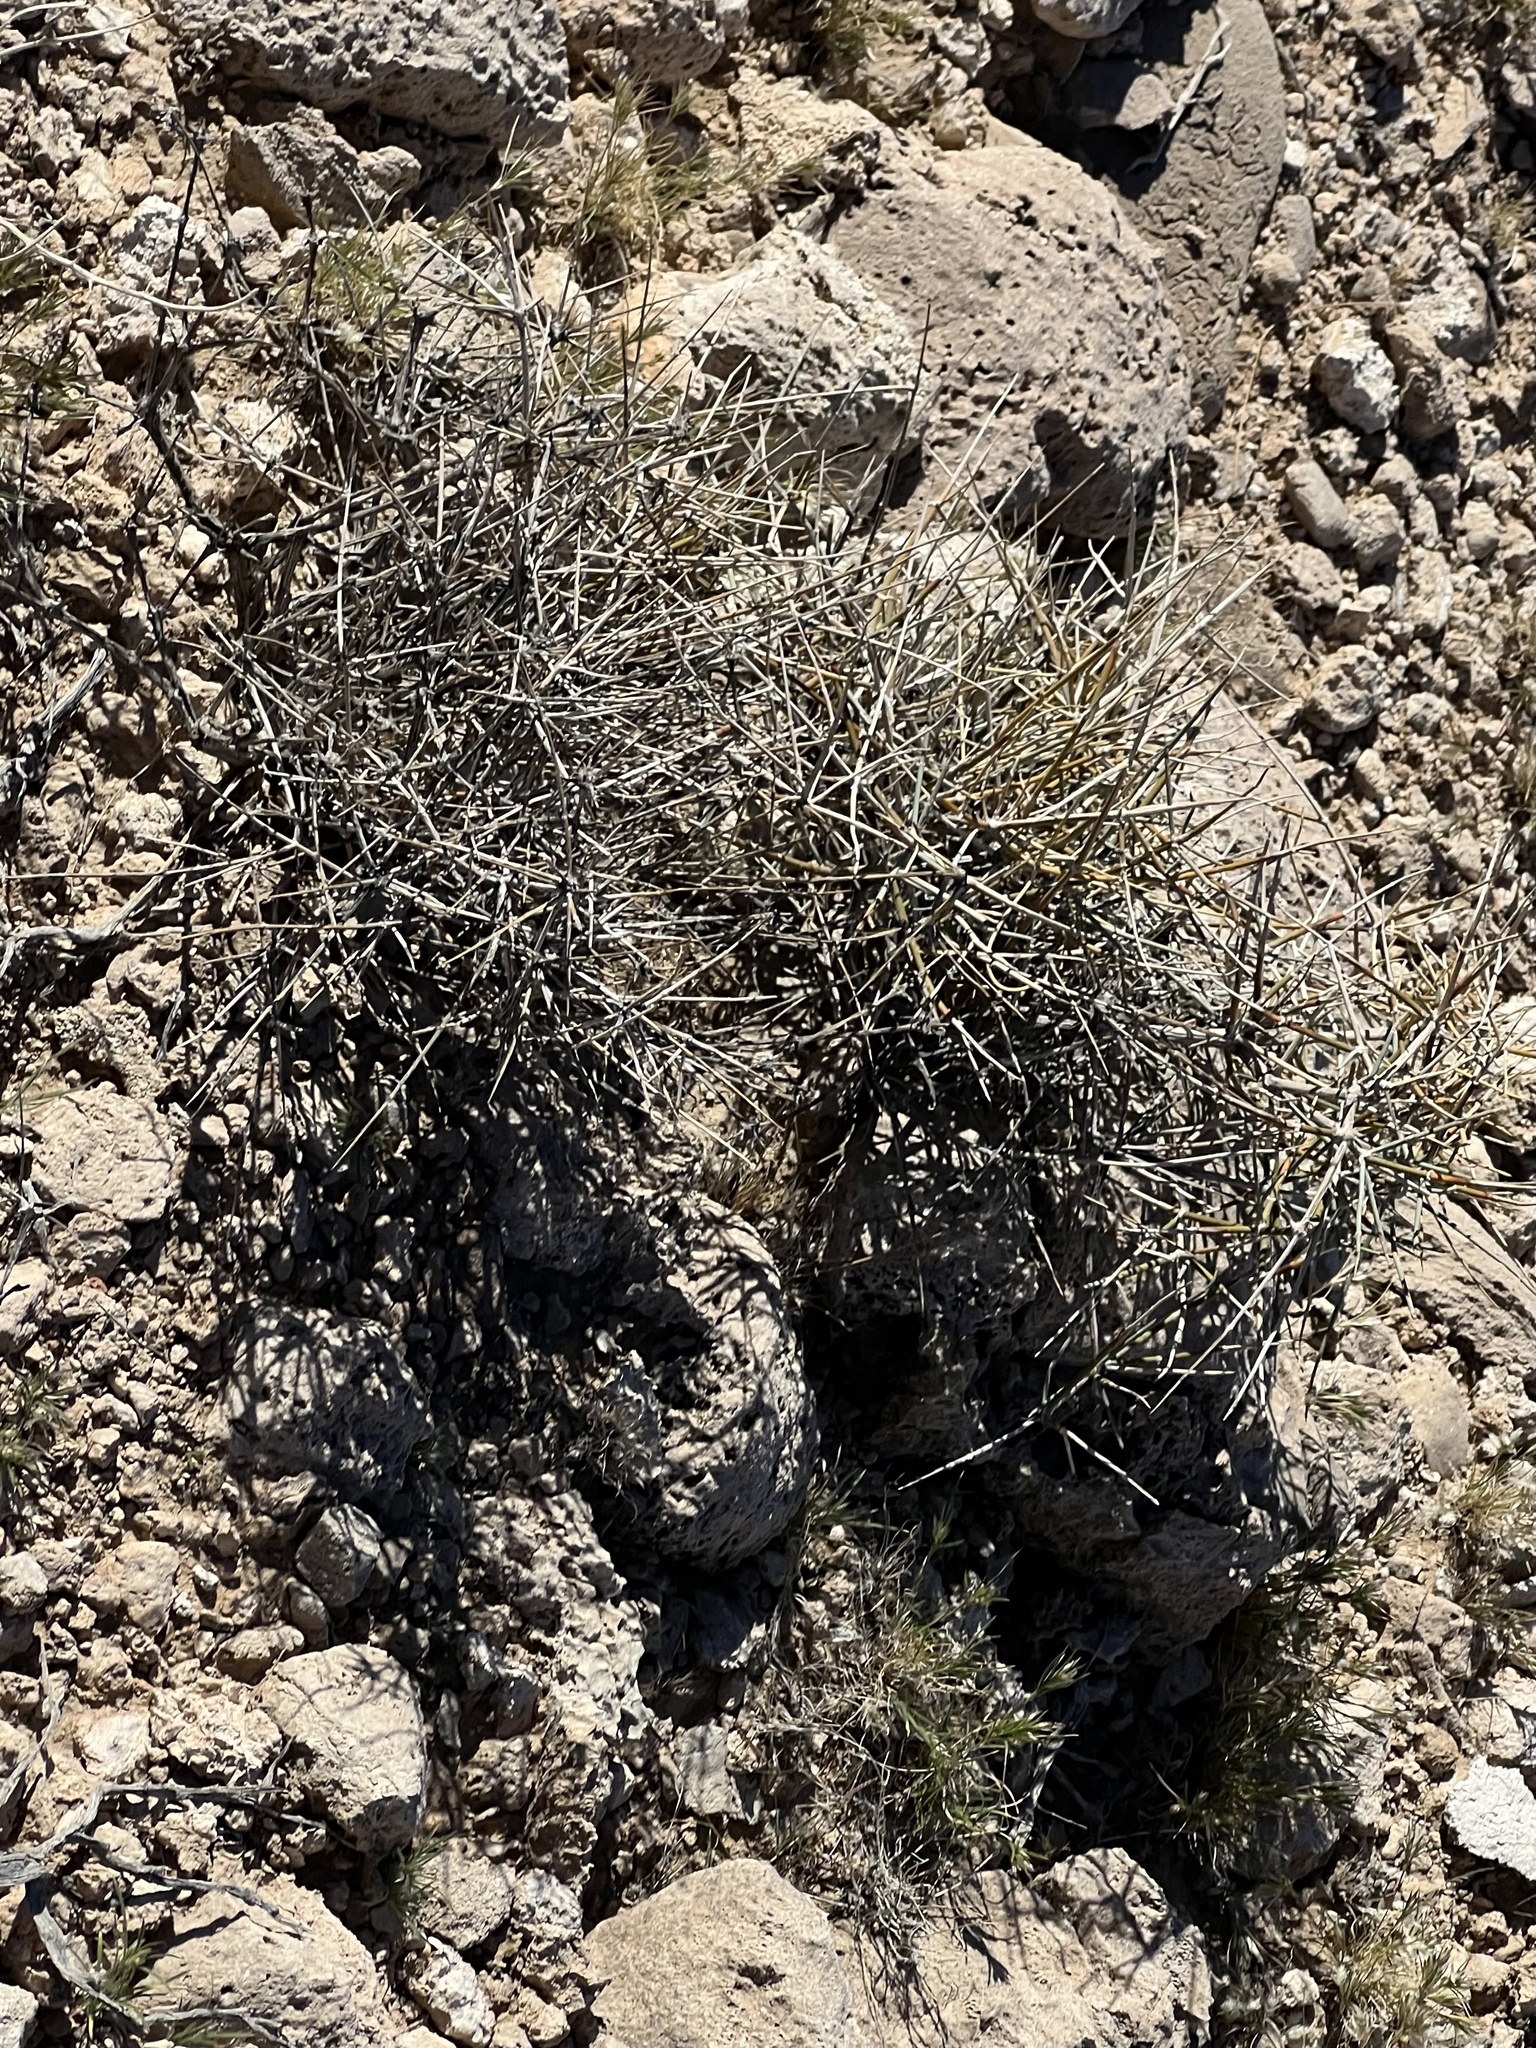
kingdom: Plantae
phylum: Tracheophyta
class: Gnetopsida
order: Ephedrales
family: Ephedraceae
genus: Ephedra
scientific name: Ephedra nevadensis
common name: Gray ephedra
